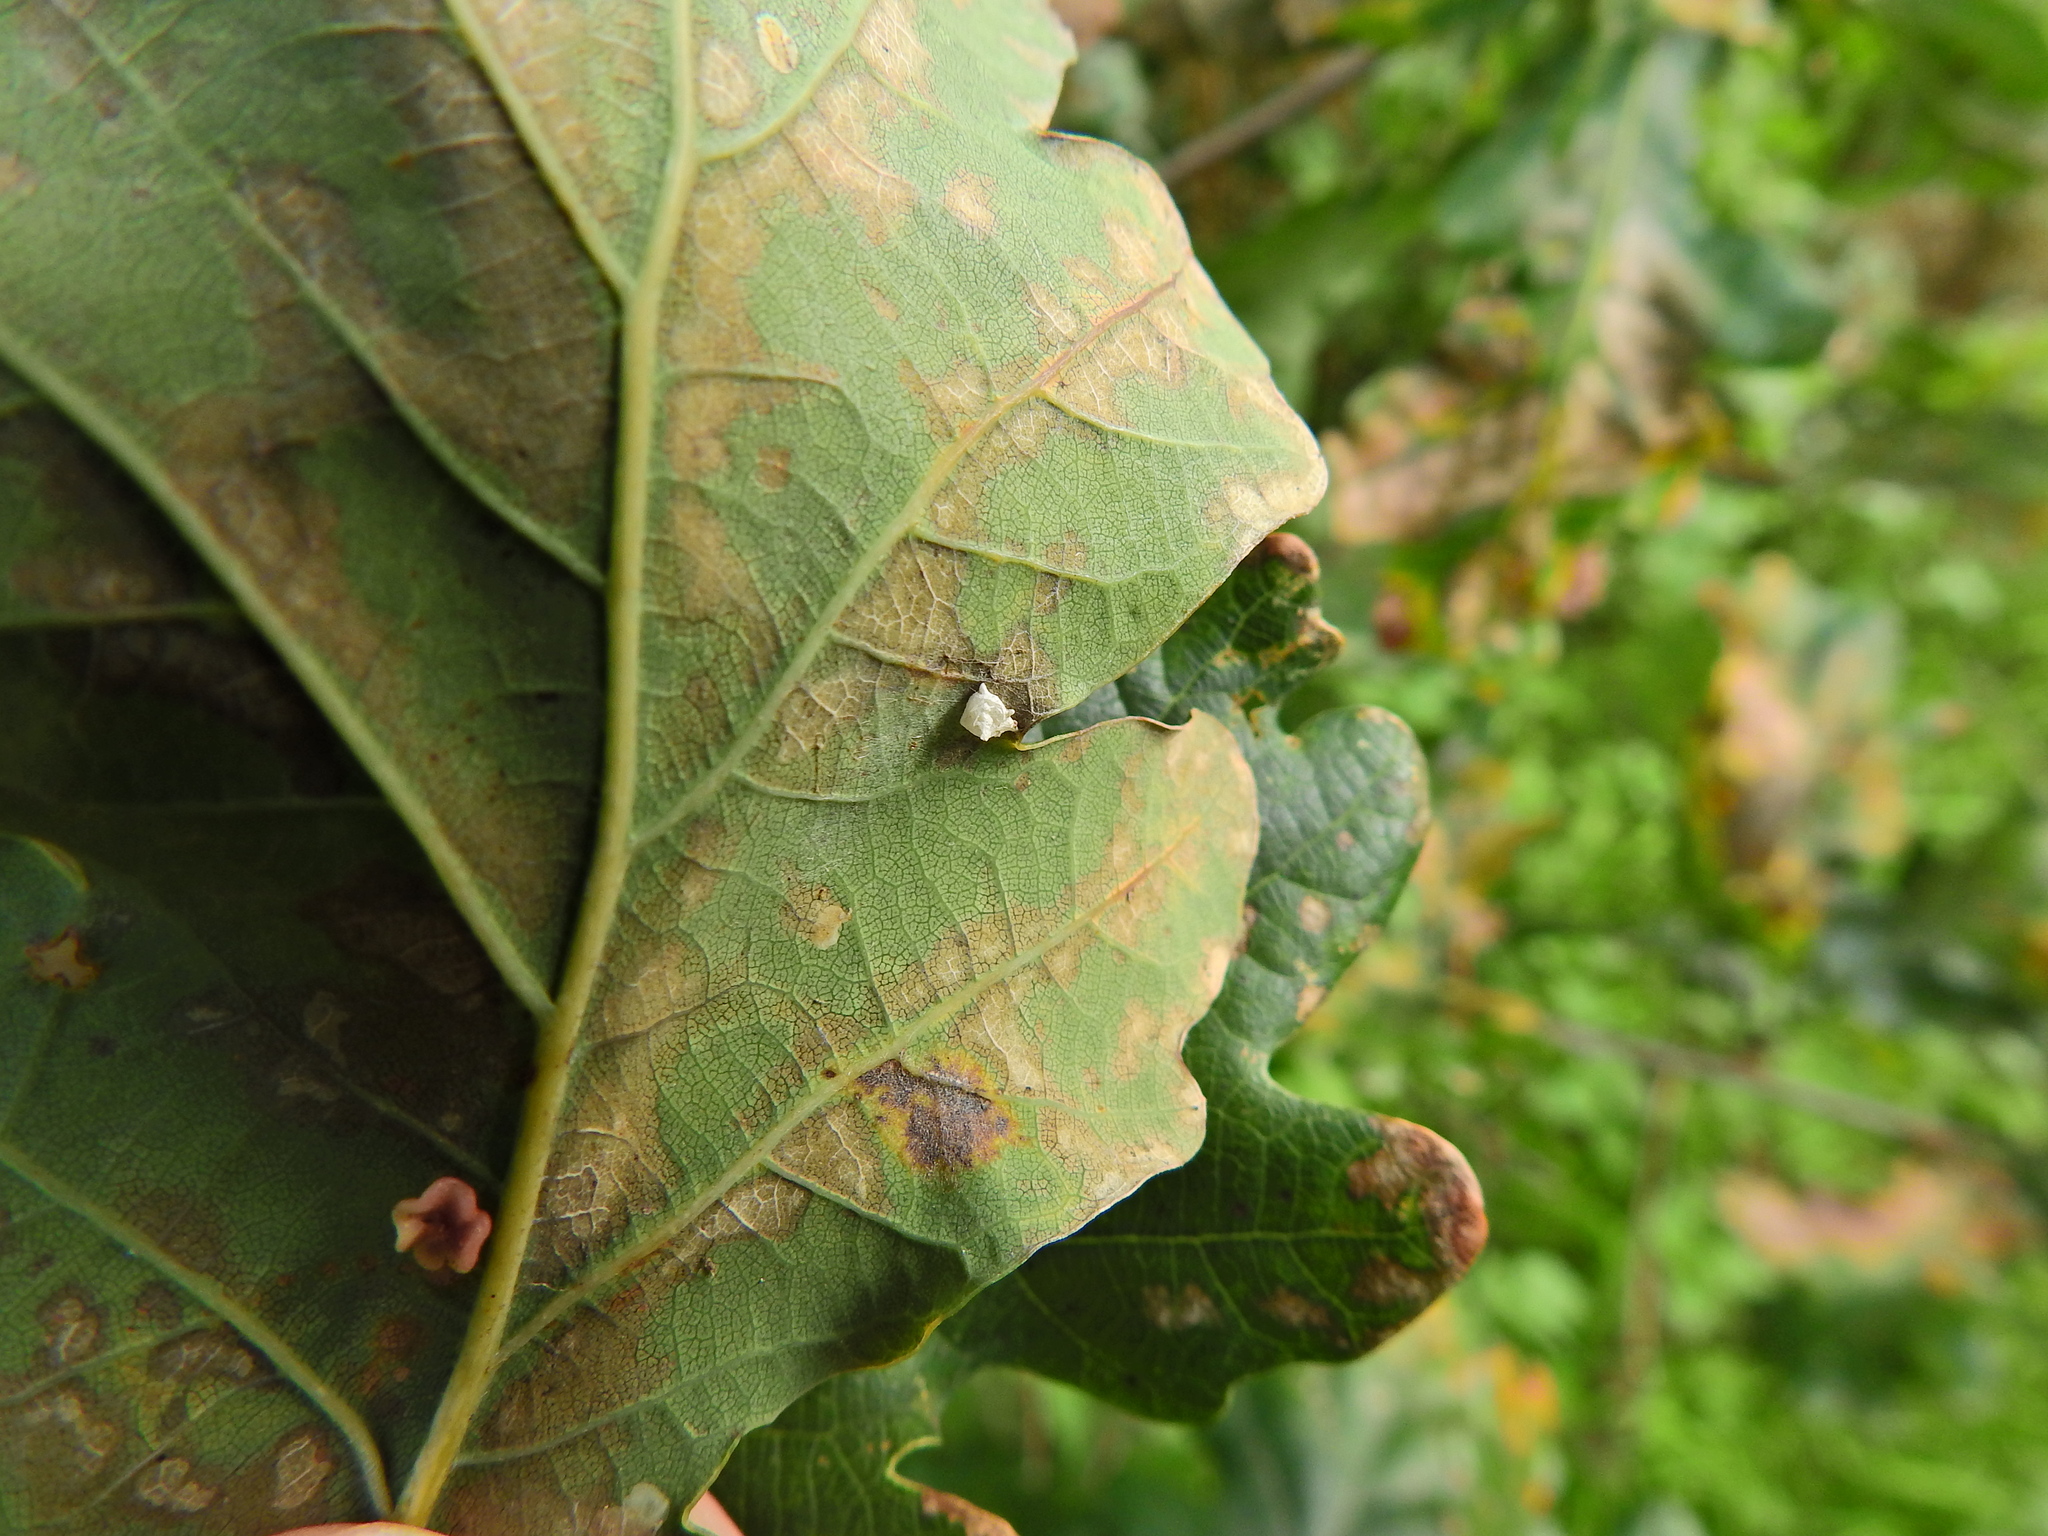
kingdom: Animalia
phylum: Arthropoda
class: Arachnida
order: Araneae
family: Theridiidae
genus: Paidiscura
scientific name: Paidiscura pallens
